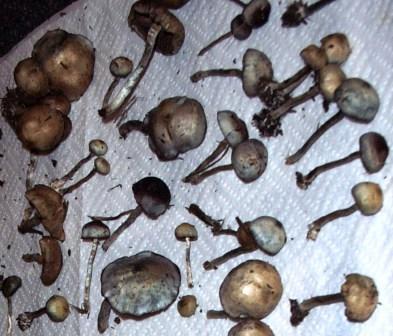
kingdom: Fungi
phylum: Basidiomycota
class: Agaricomycetes
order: Agaricales
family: Hymenogastraceae
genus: Psilocybe
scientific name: Psilocybe baeocystis
